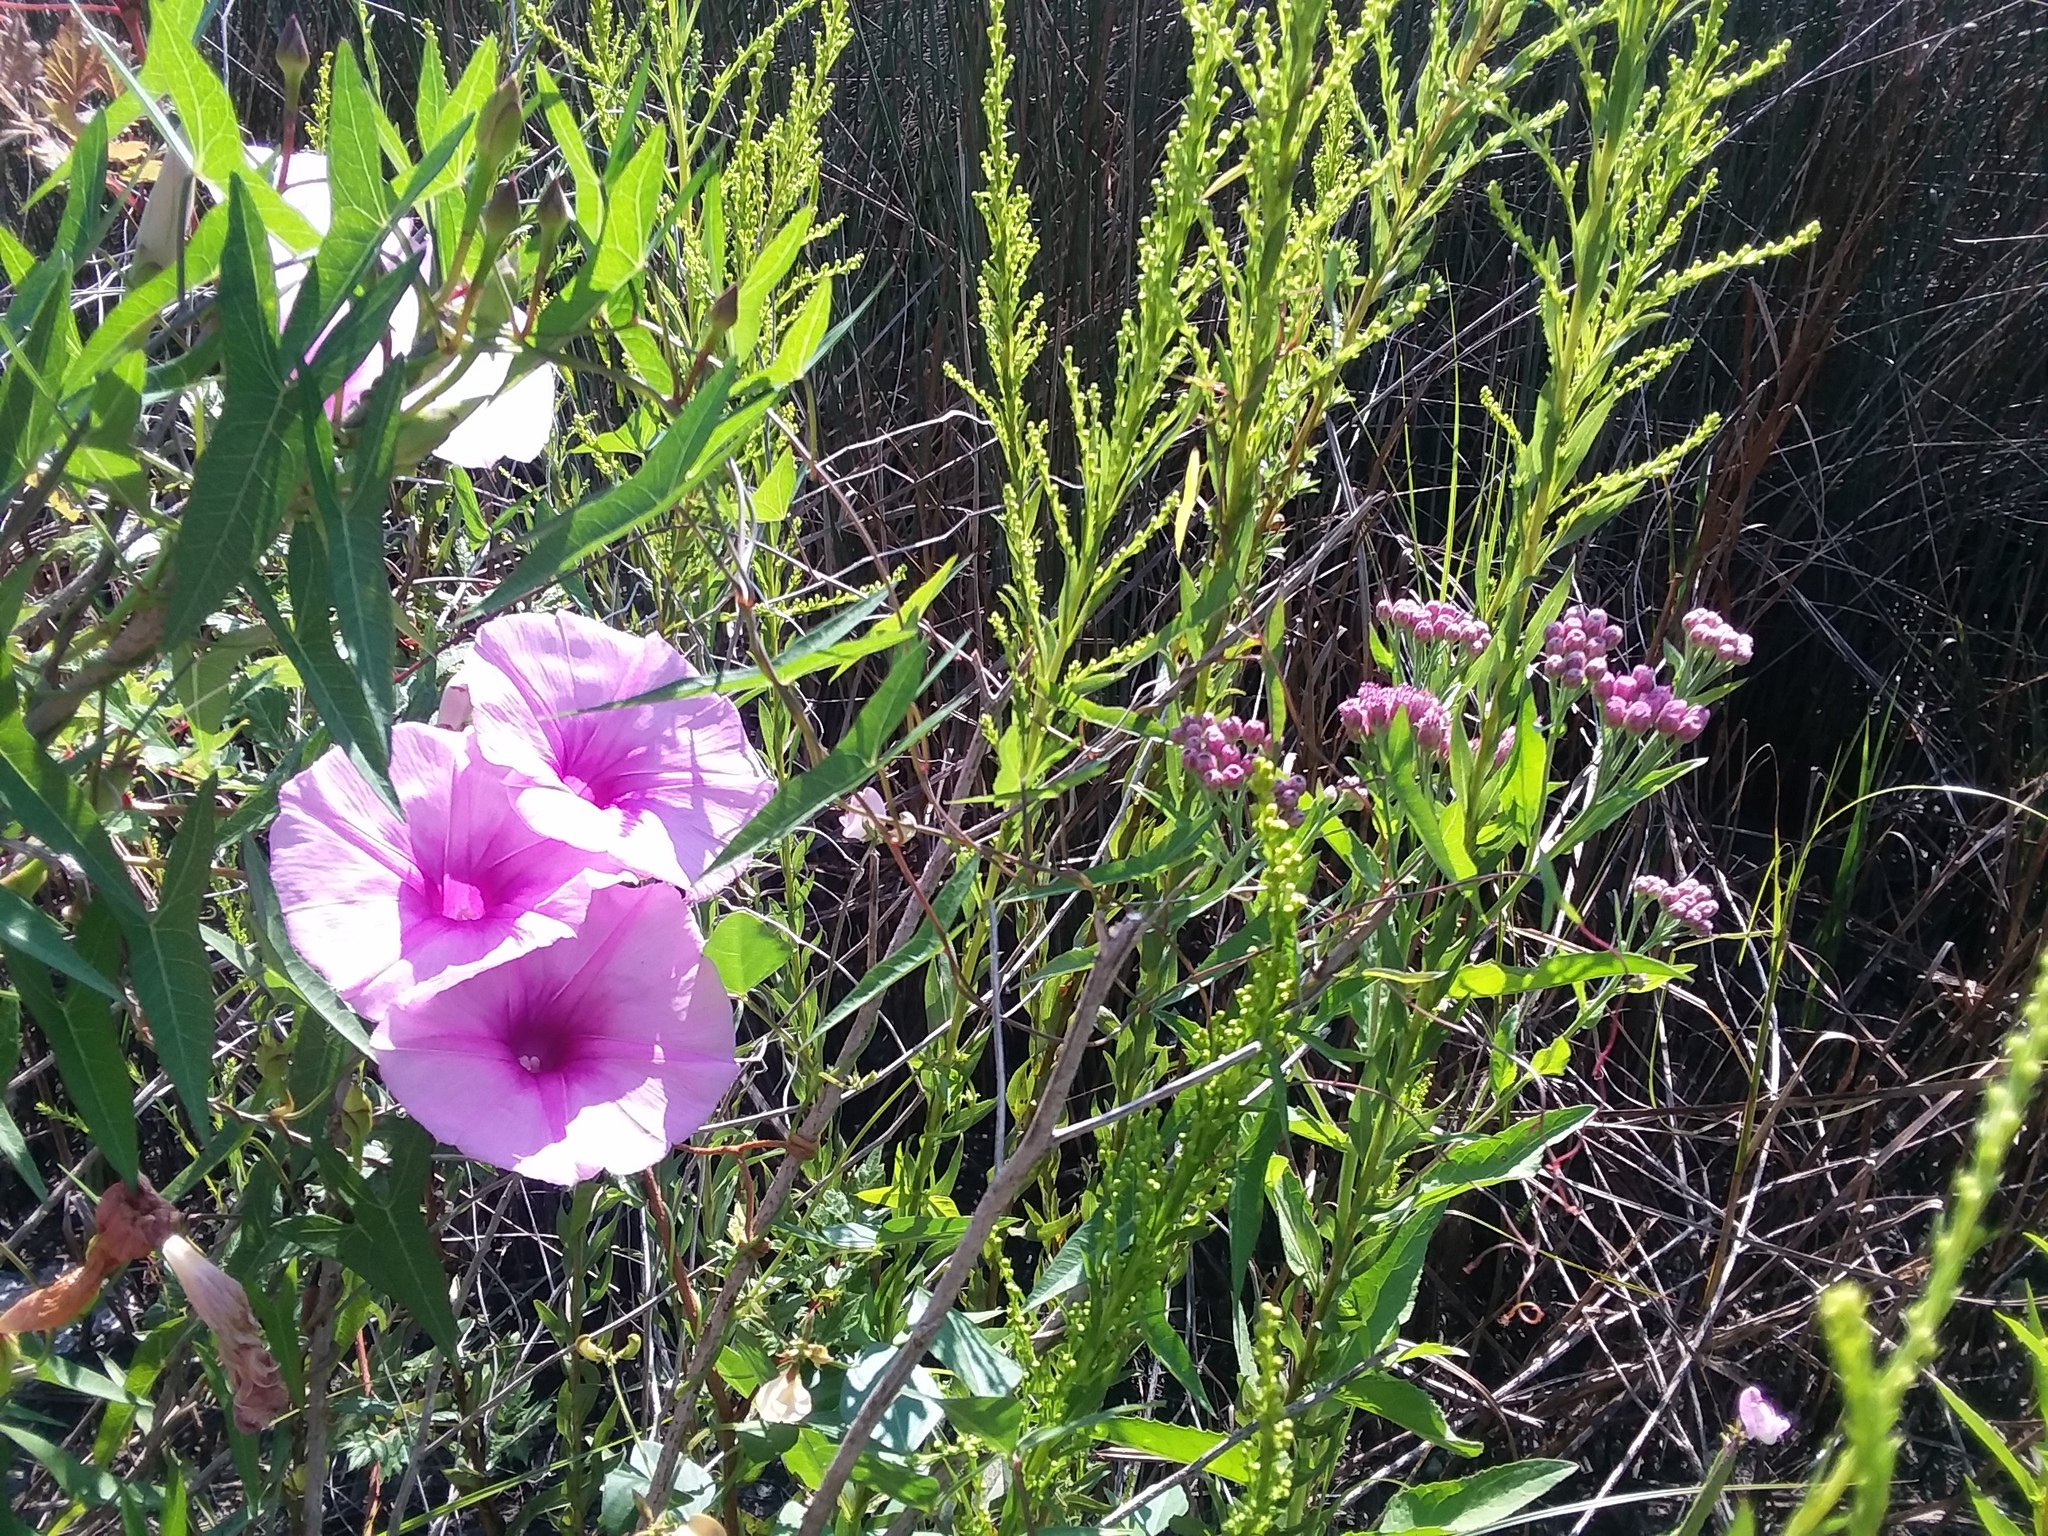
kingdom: Plantae
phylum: Tracheophyta
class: Magnoliopsida
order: Solanales
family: Convolvulaceae
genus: Ipomoea
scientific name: Ipomoea sagittata
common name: Saltmarsh morning glory
